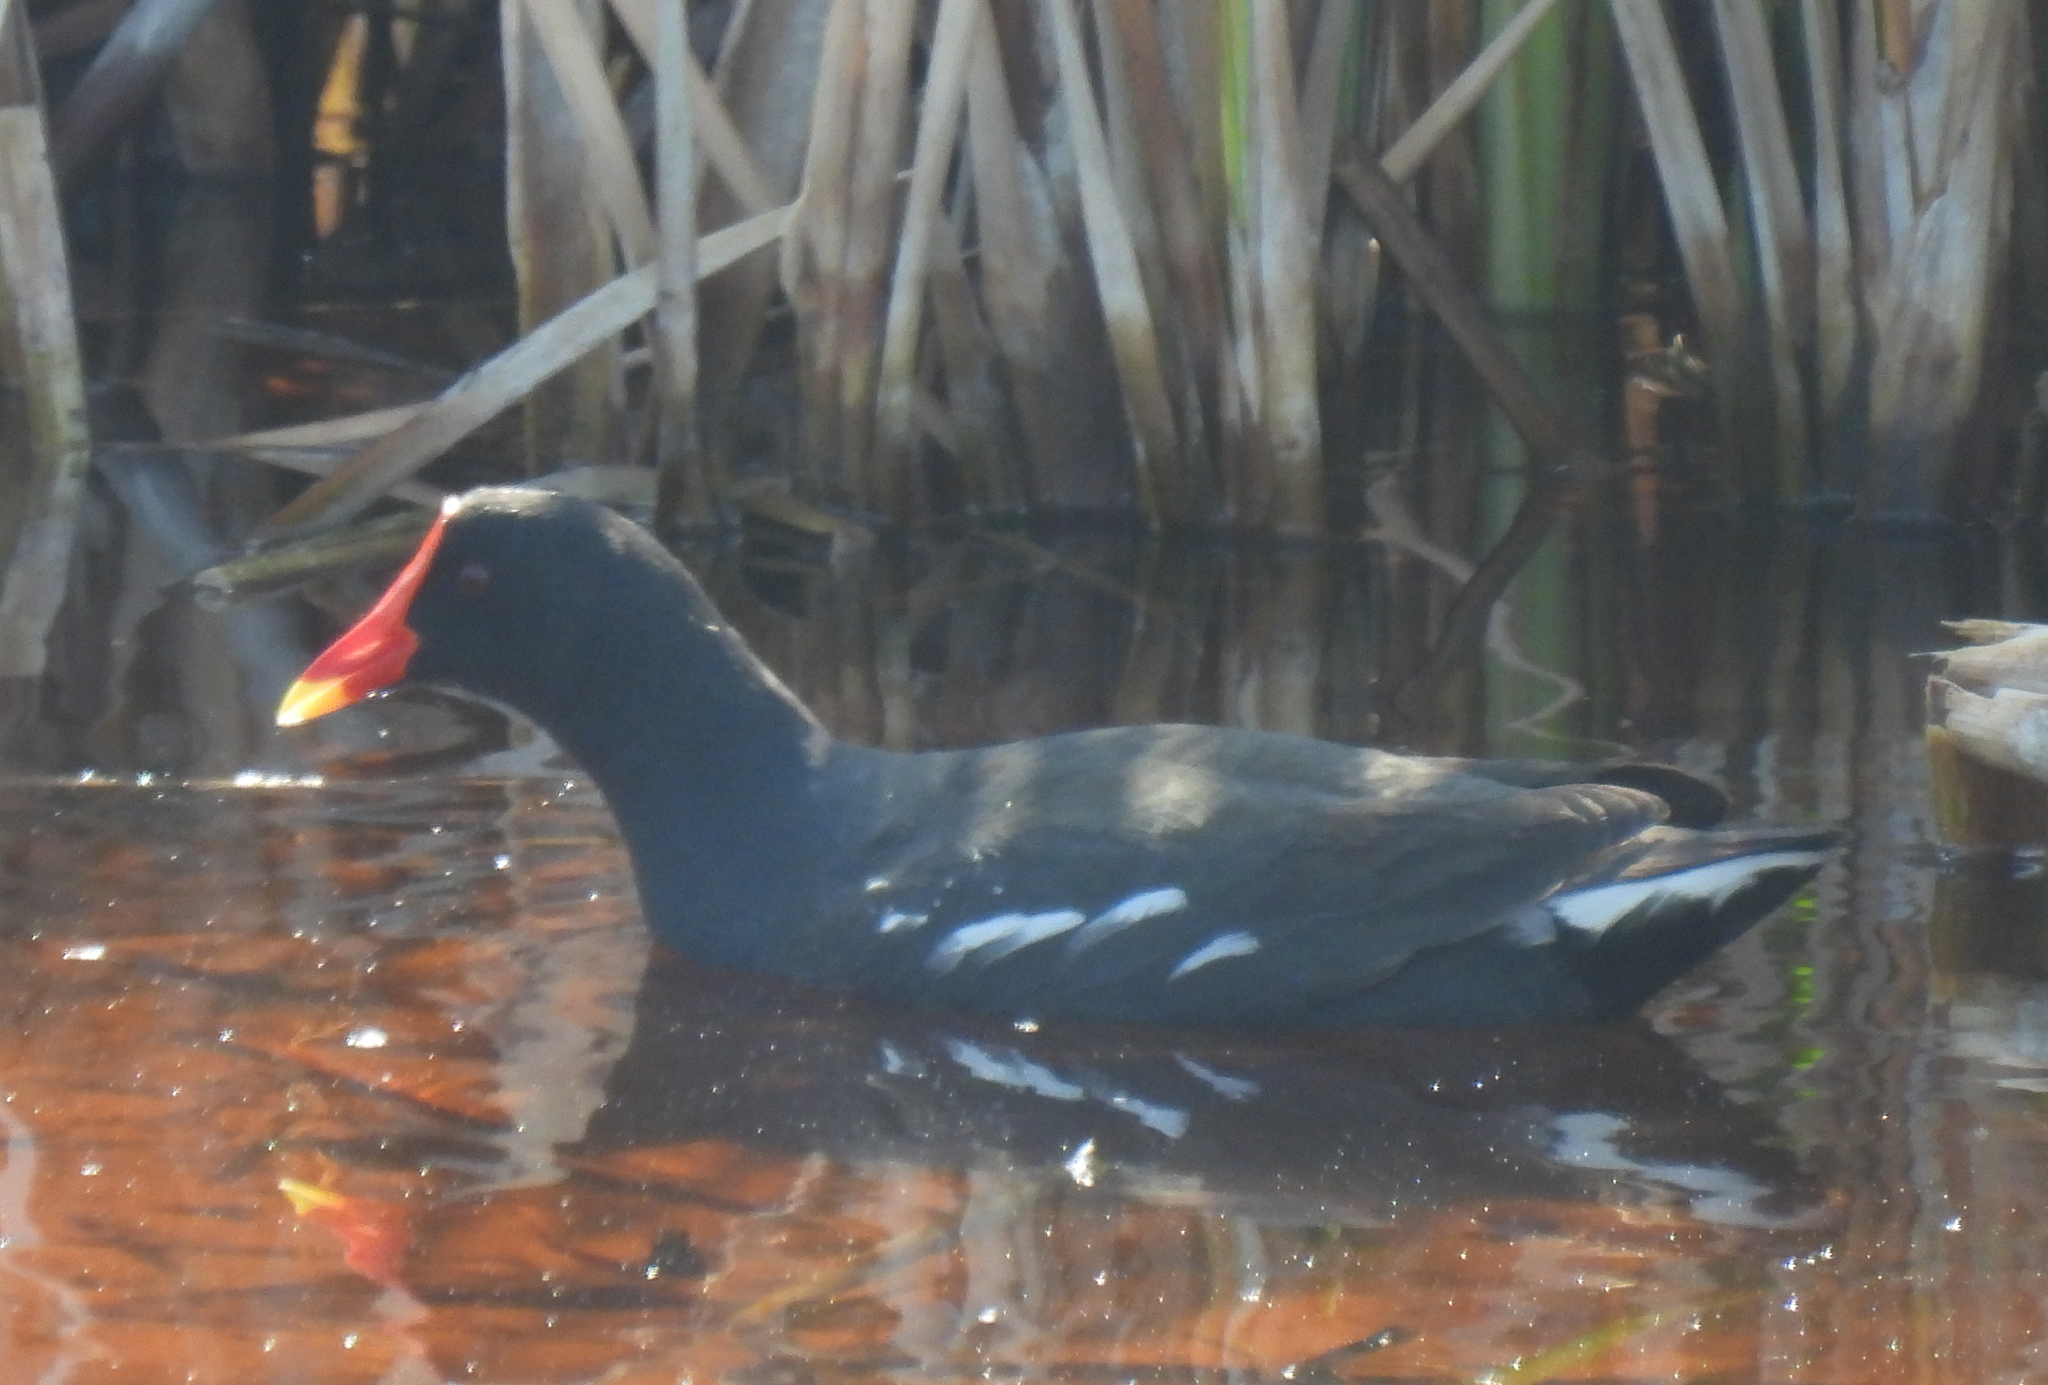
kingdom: Animalia
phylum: Chordata
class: Aves
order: Gruiformes
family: Rallidae
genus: Gallinula
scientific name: Gallinula chloropus
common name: Common moorhen
